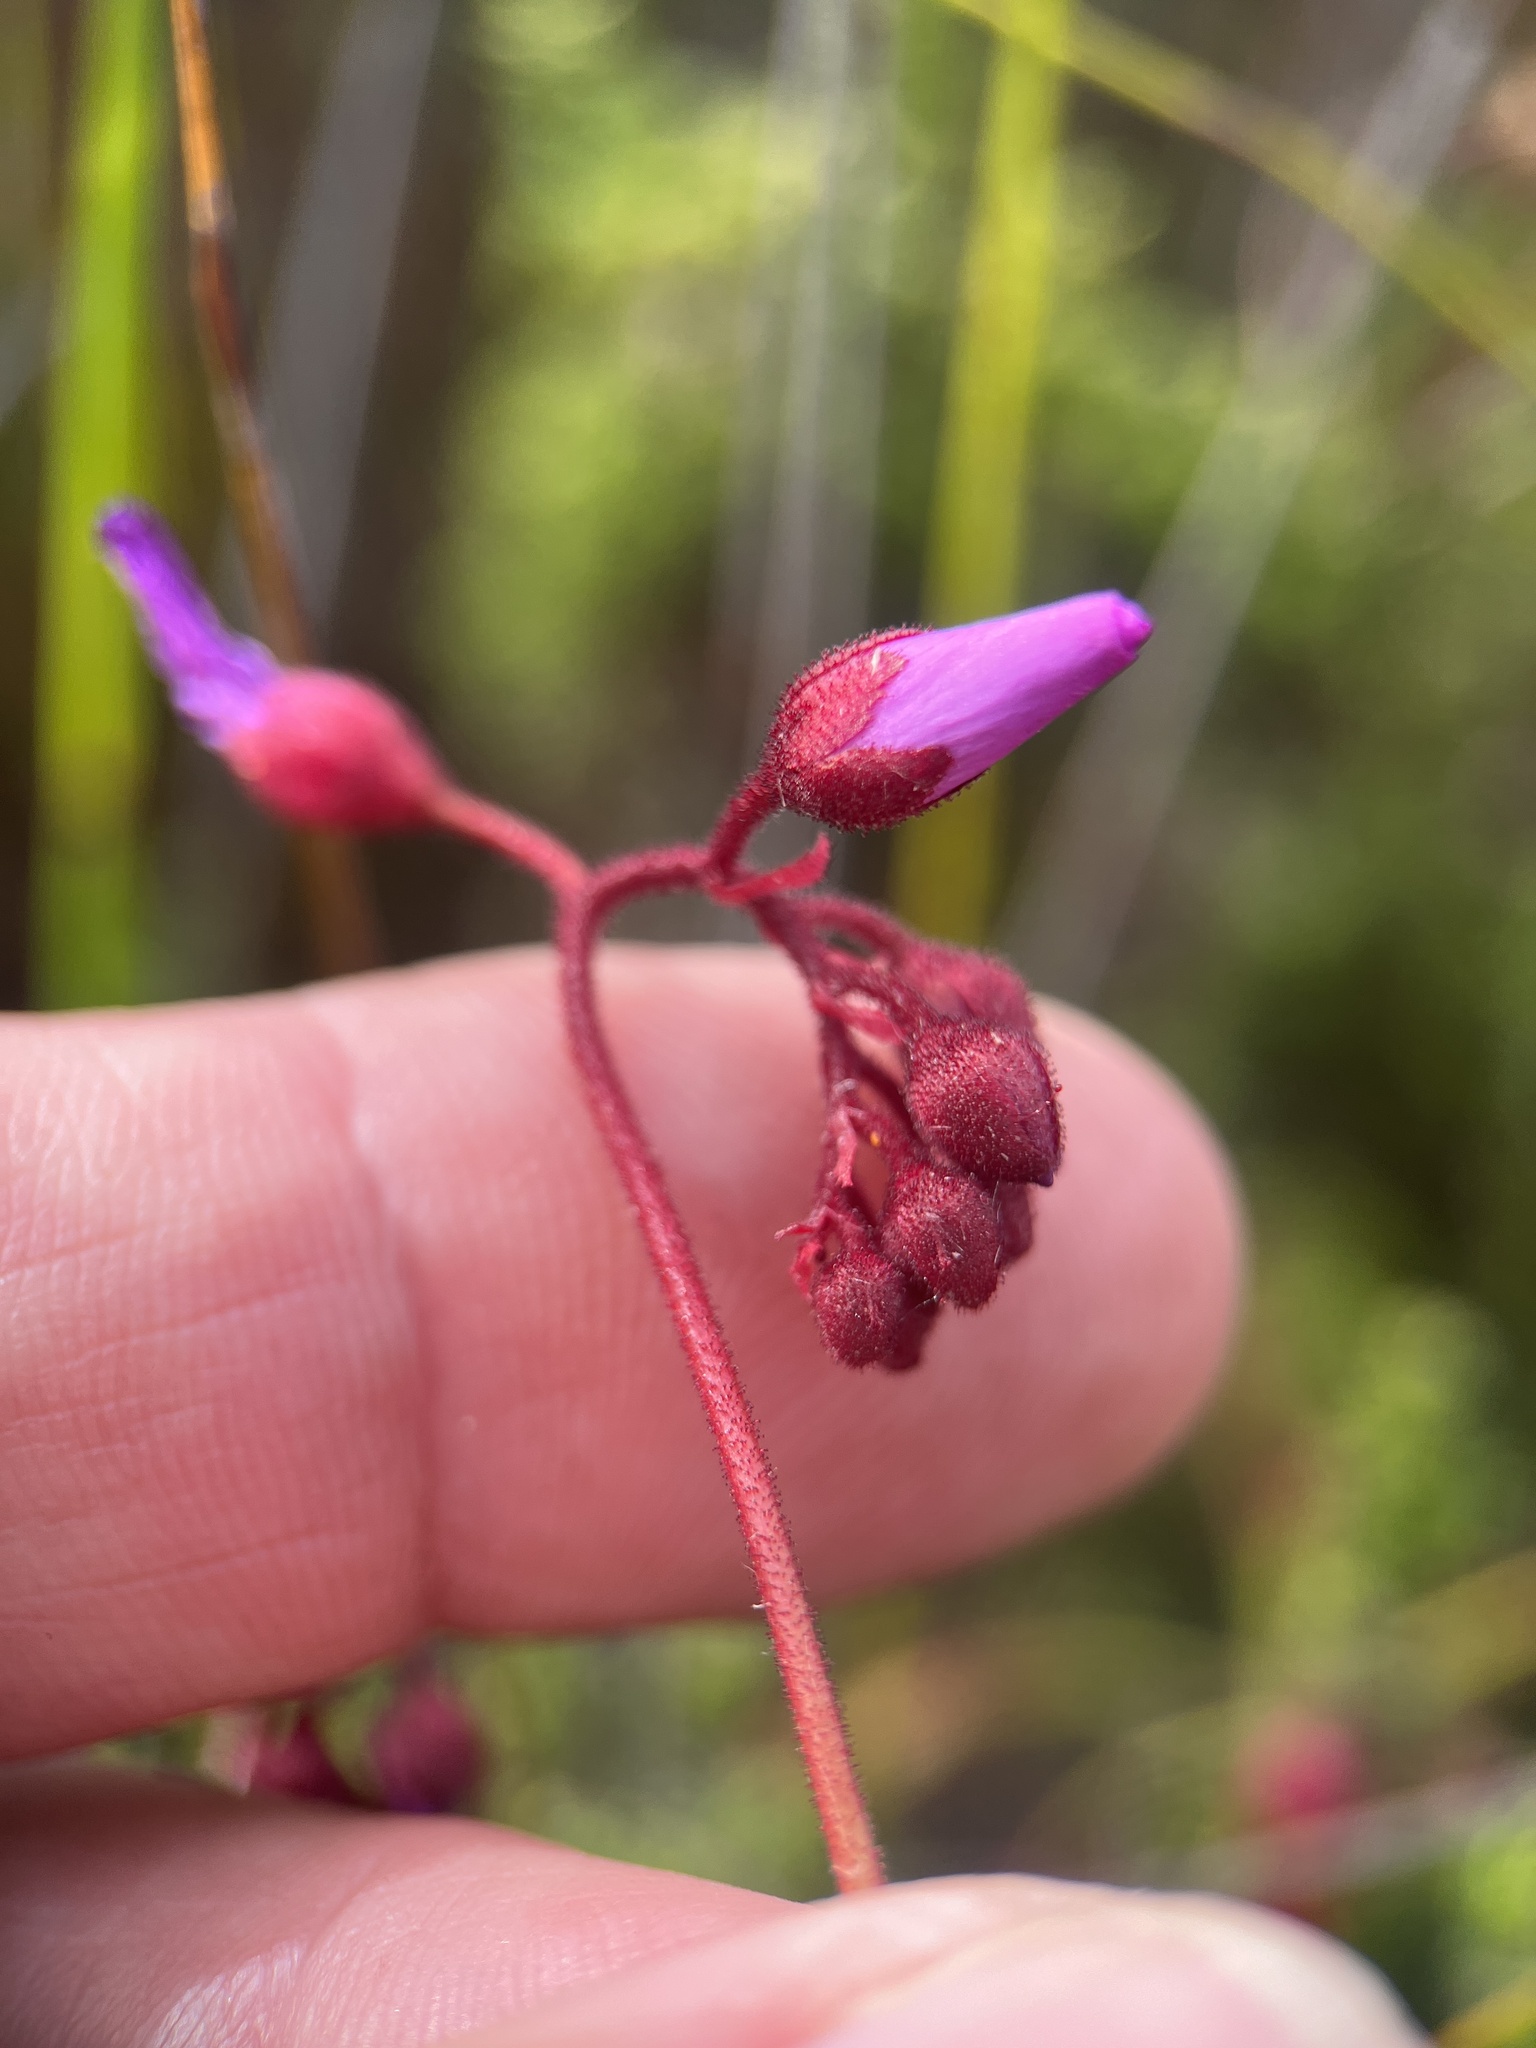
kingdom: Plantae
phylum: Tracheophyta
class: Magnoliopsida
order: Caryophyllales
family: Droseraceae
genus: Drosera
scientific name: Drosera glabripes
